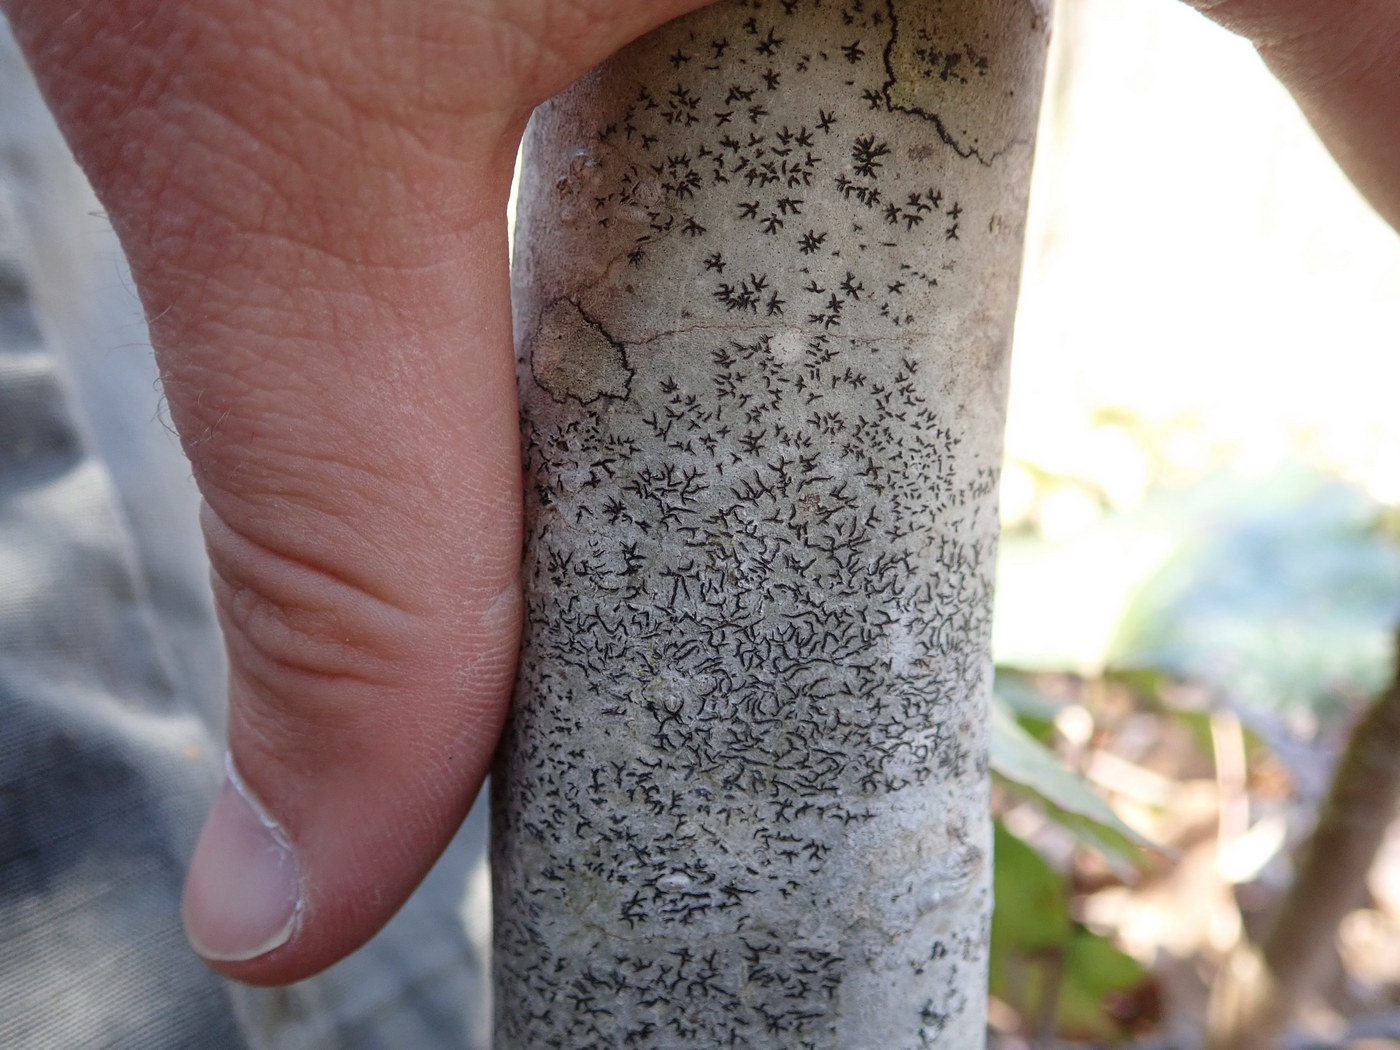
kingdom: Fungi
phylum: Ascomycota
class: Lecanoromycetes
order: Ostropales
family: Graphidaceae
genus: Graphis
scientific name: Graphis scripta
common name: Script lichen
